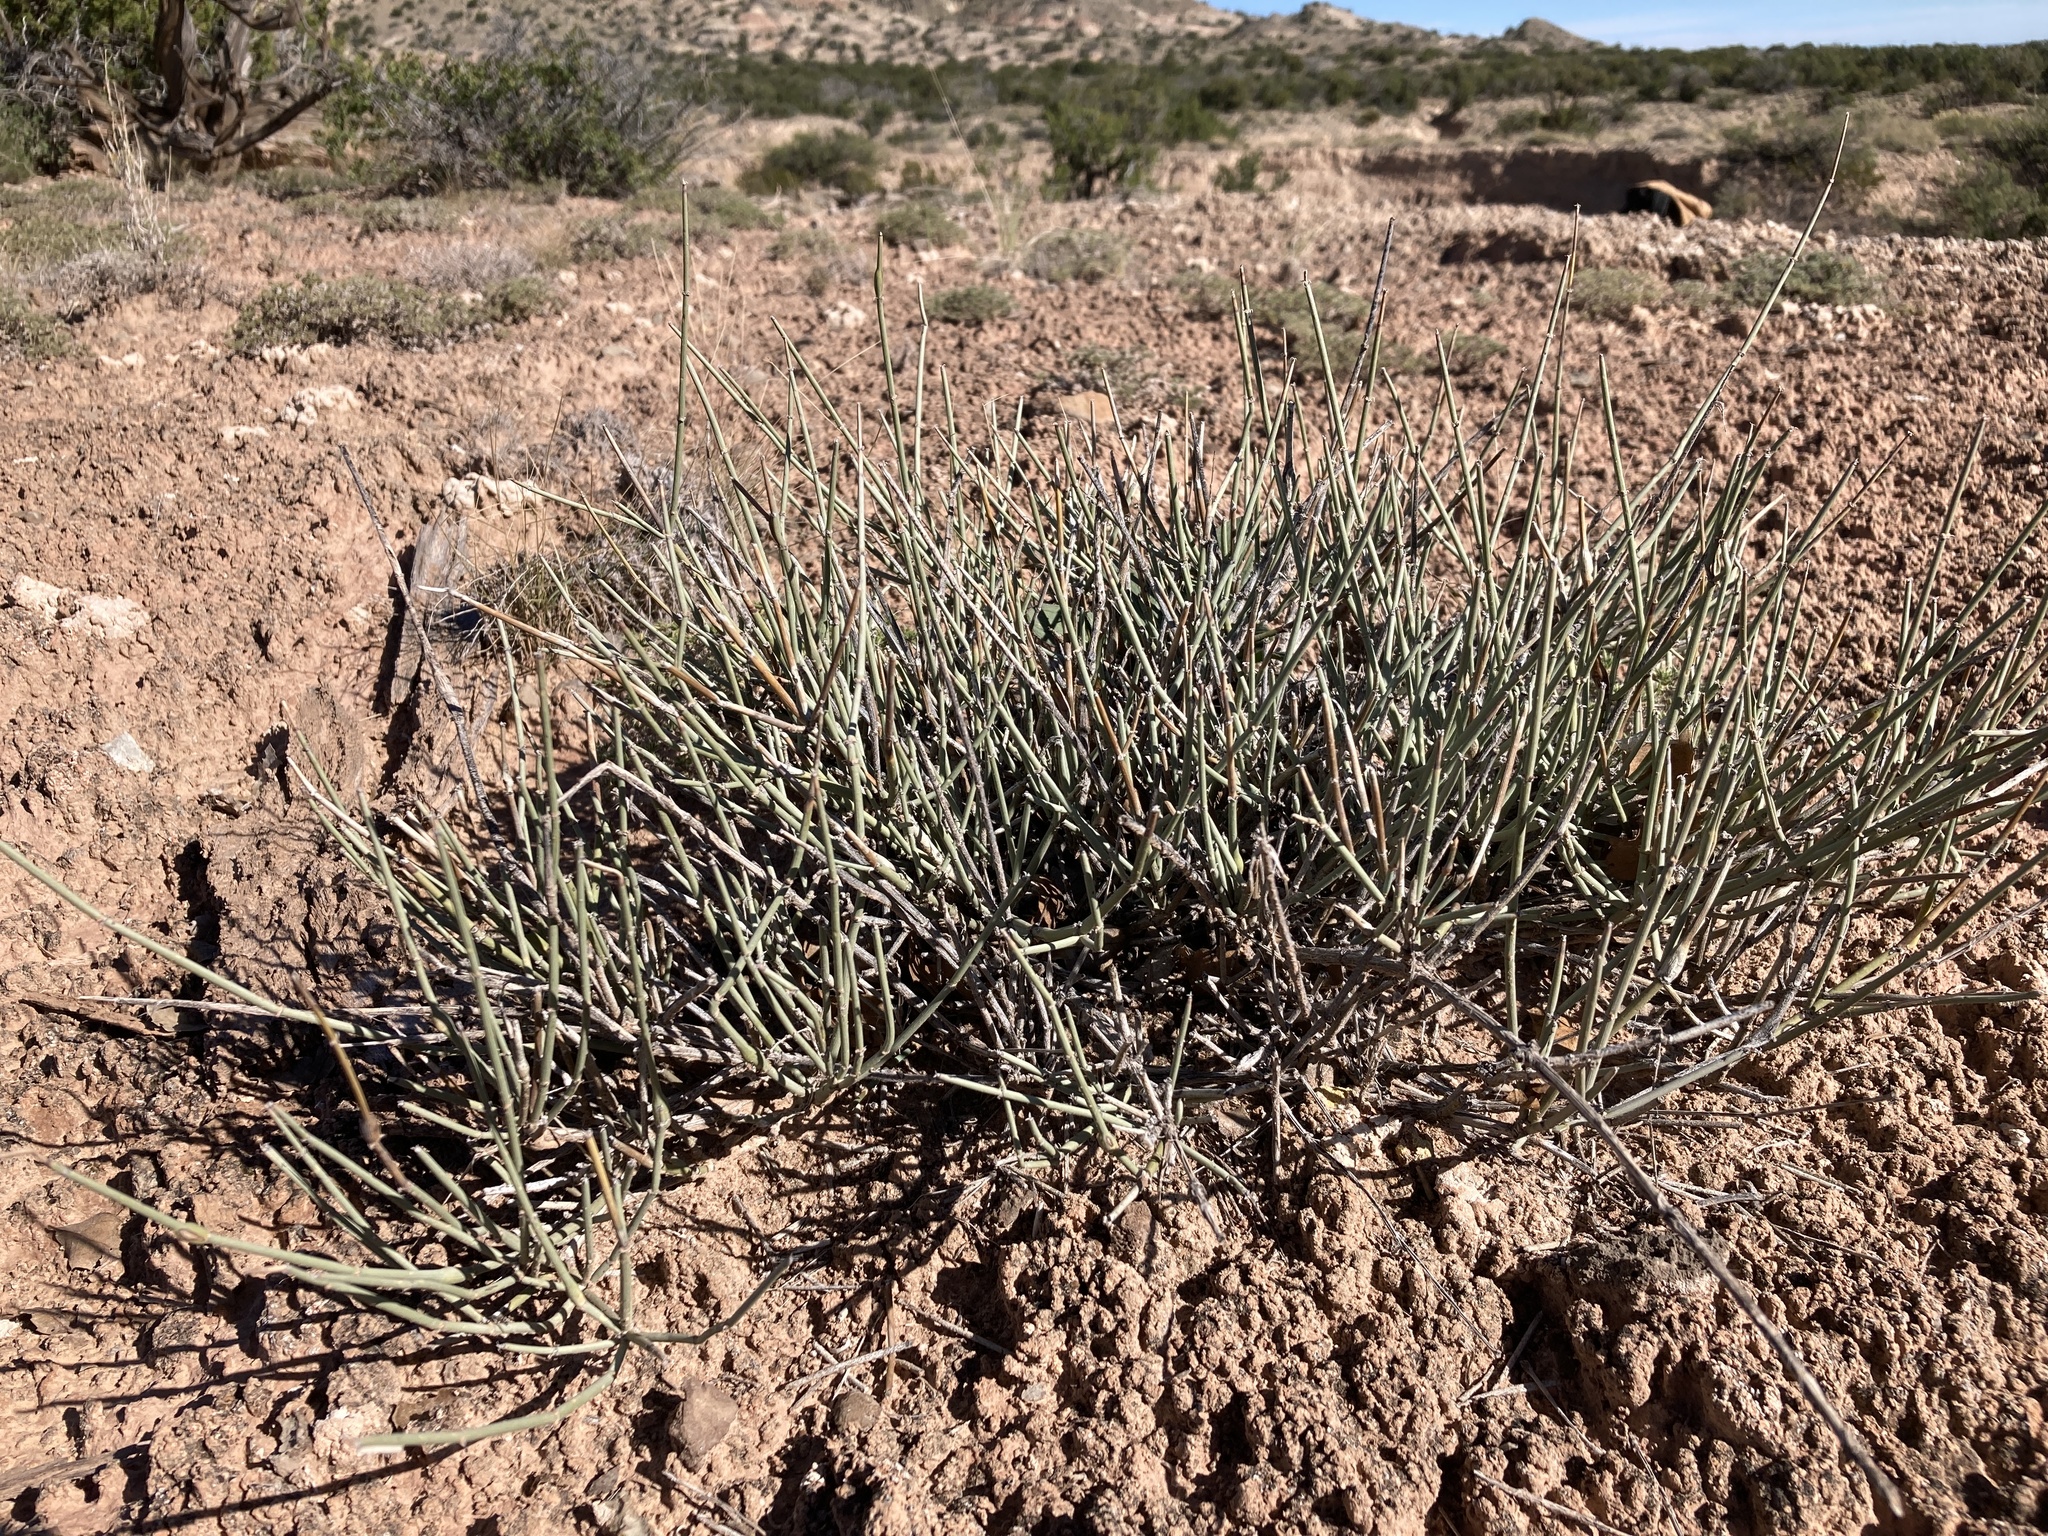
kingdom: Plantae
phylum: Tracheophyta
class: Gnetopsida
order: Ephedrales
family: Ephedraceae
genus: Ephedra
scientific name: Ephedra torreyana
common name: Torrey ephedra
